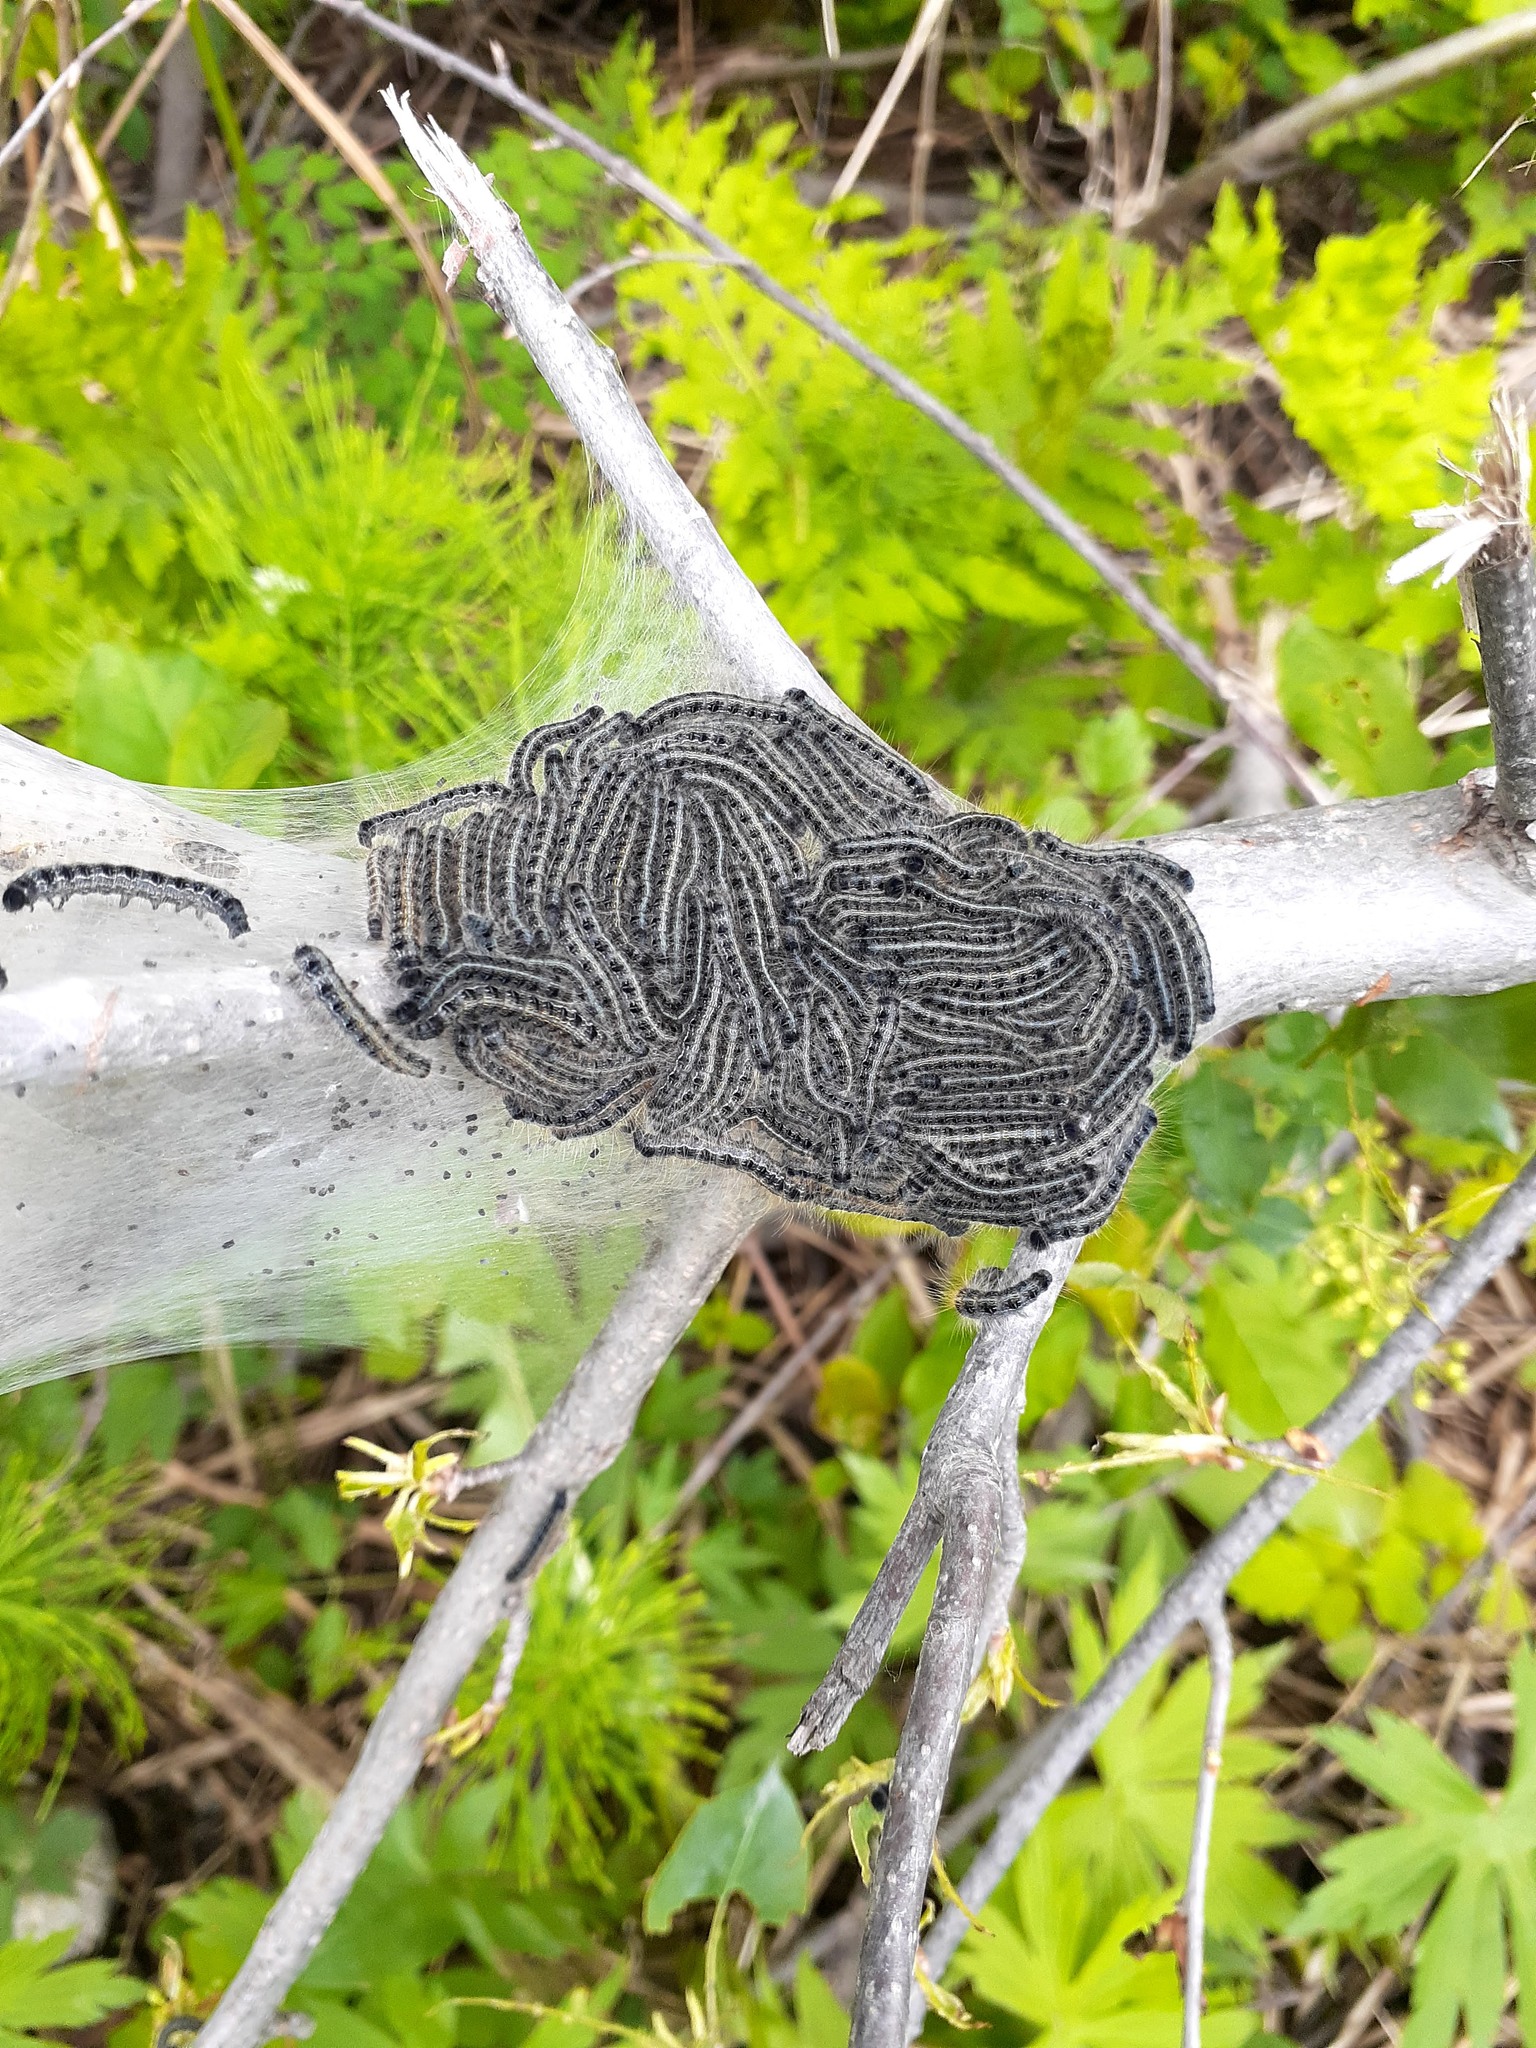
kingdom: Animalia
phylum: Arthropoda
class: Insecta
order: Lepidoptera
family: Lasiocampidae
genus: Malacosoma
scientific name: Malacosoma americana
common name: Eastern tent caterpillar moth
